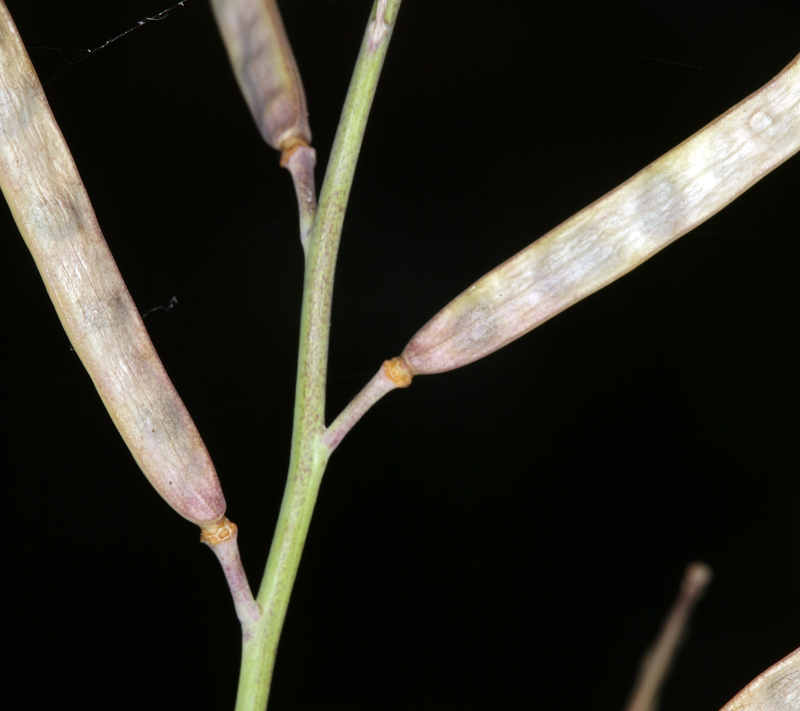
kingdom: Plantae
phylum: Tracheophyta
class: Magnoliopsida
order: Brassicales
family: Brassicaceae
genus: Streptanthus
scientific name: Streptanthus cordatus
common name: Heart-leaf jewel-flower
